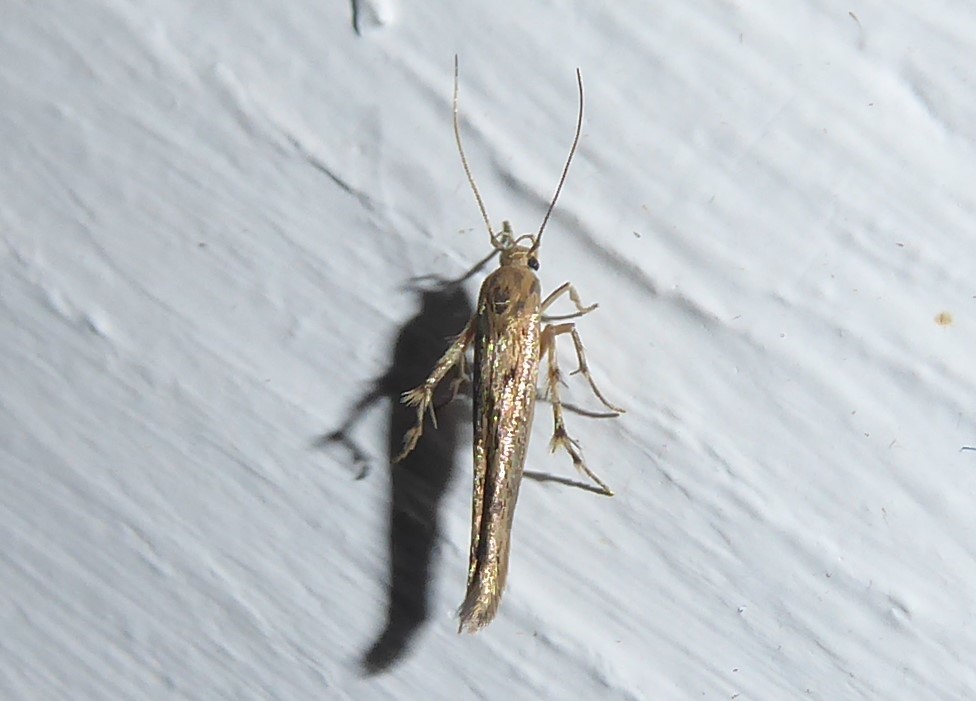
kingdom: Animalia
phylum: Arthropoda
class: Insecta
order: Lepidoptera
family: Stathmopodidae
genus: Stathmopoda
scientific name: Stathmopoda plumbiflua
